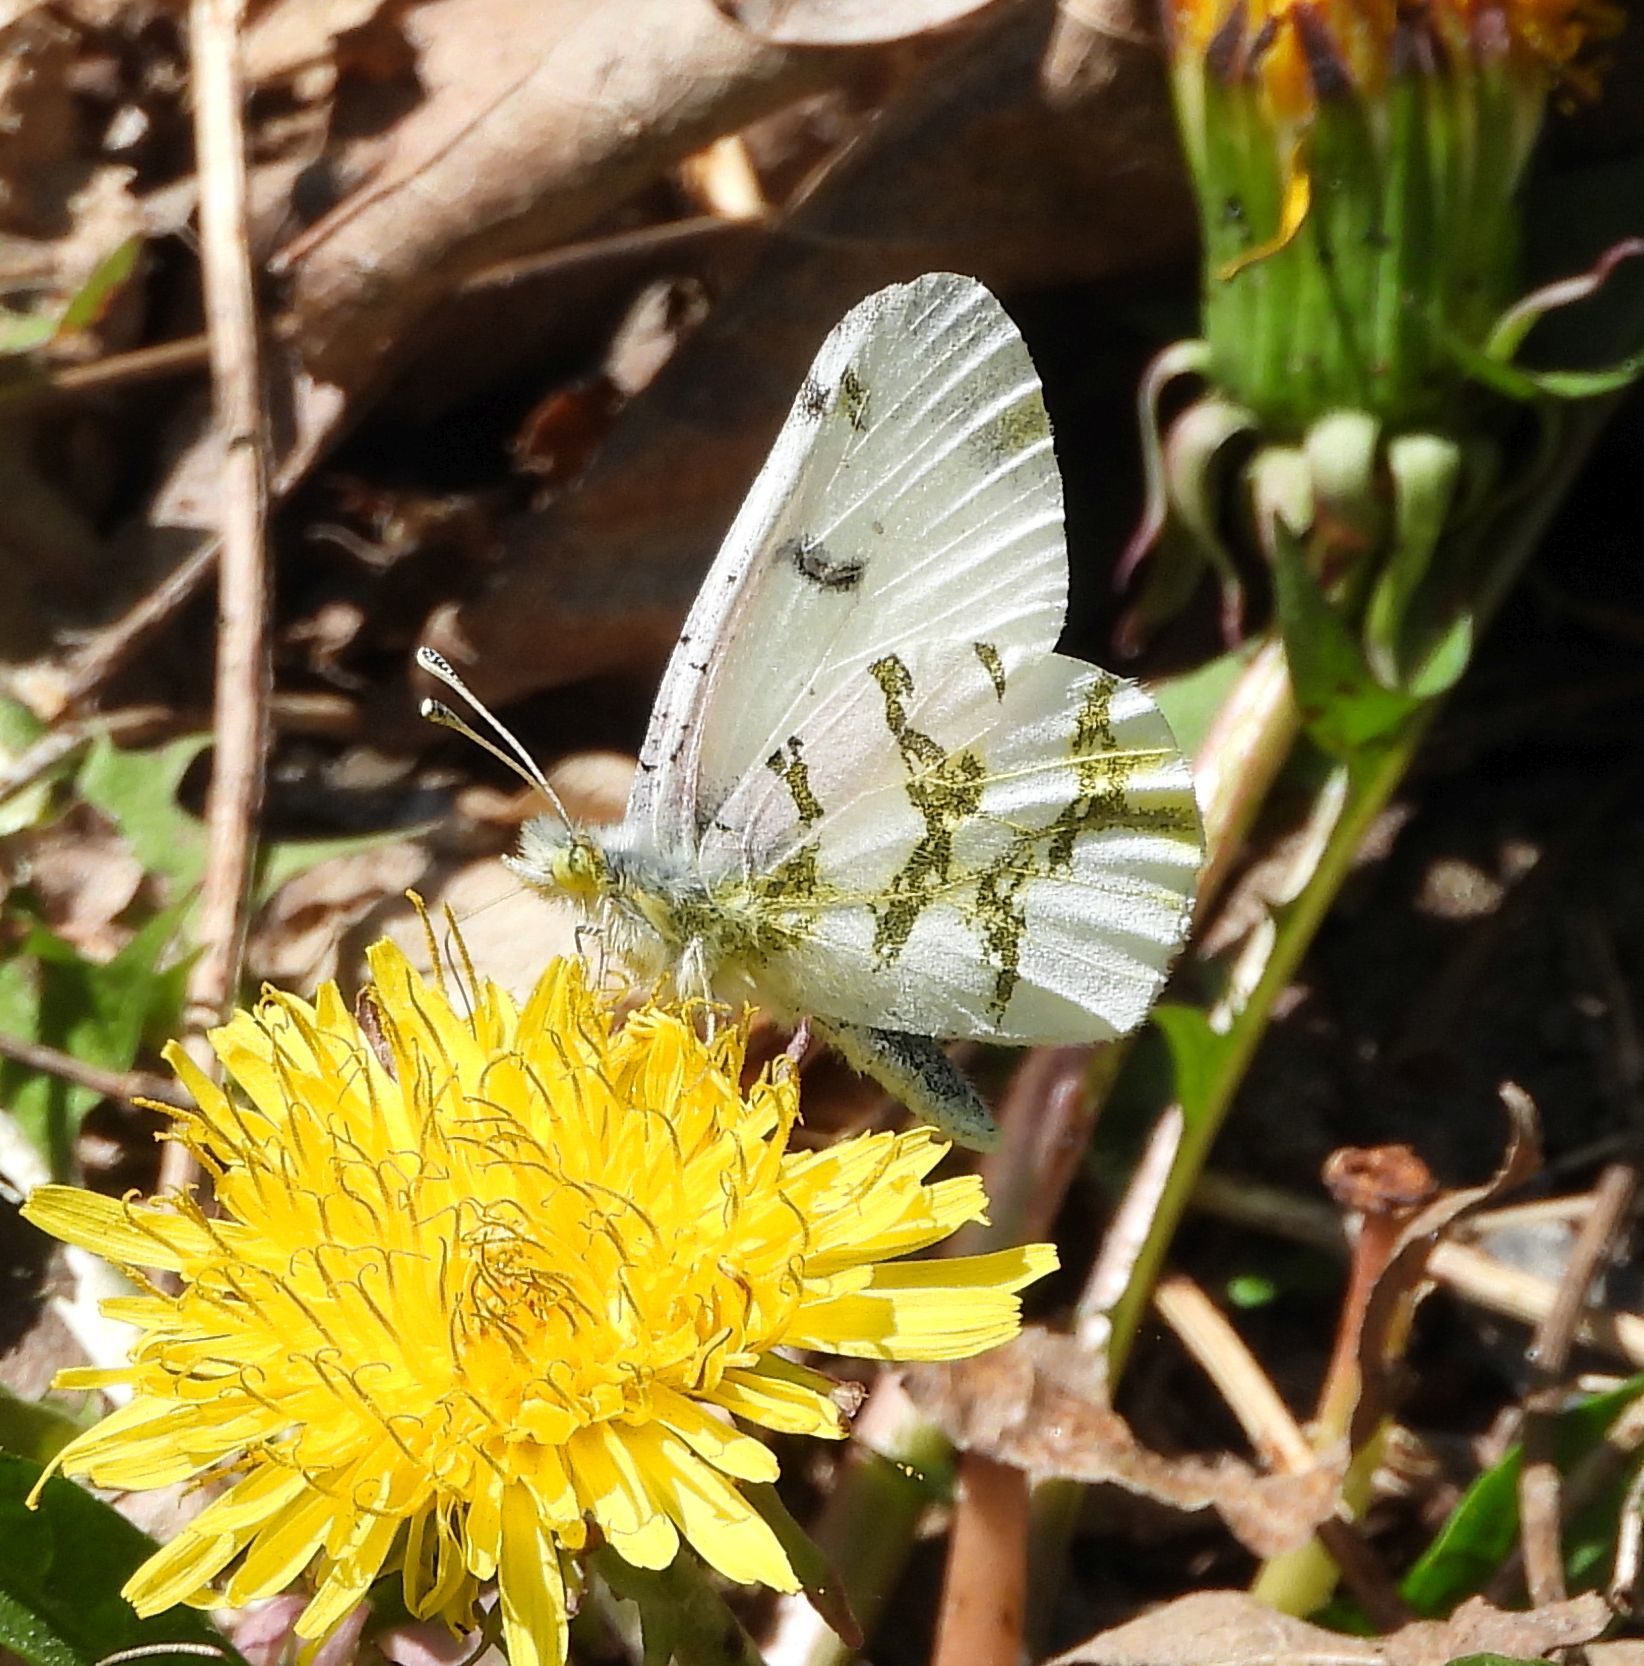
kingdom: Animalia
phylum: Arthropoda
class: Insecta
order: Lepidoptera
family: Pieridae
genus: Euchloe
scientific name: Euchloe olympia
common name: Olympia
